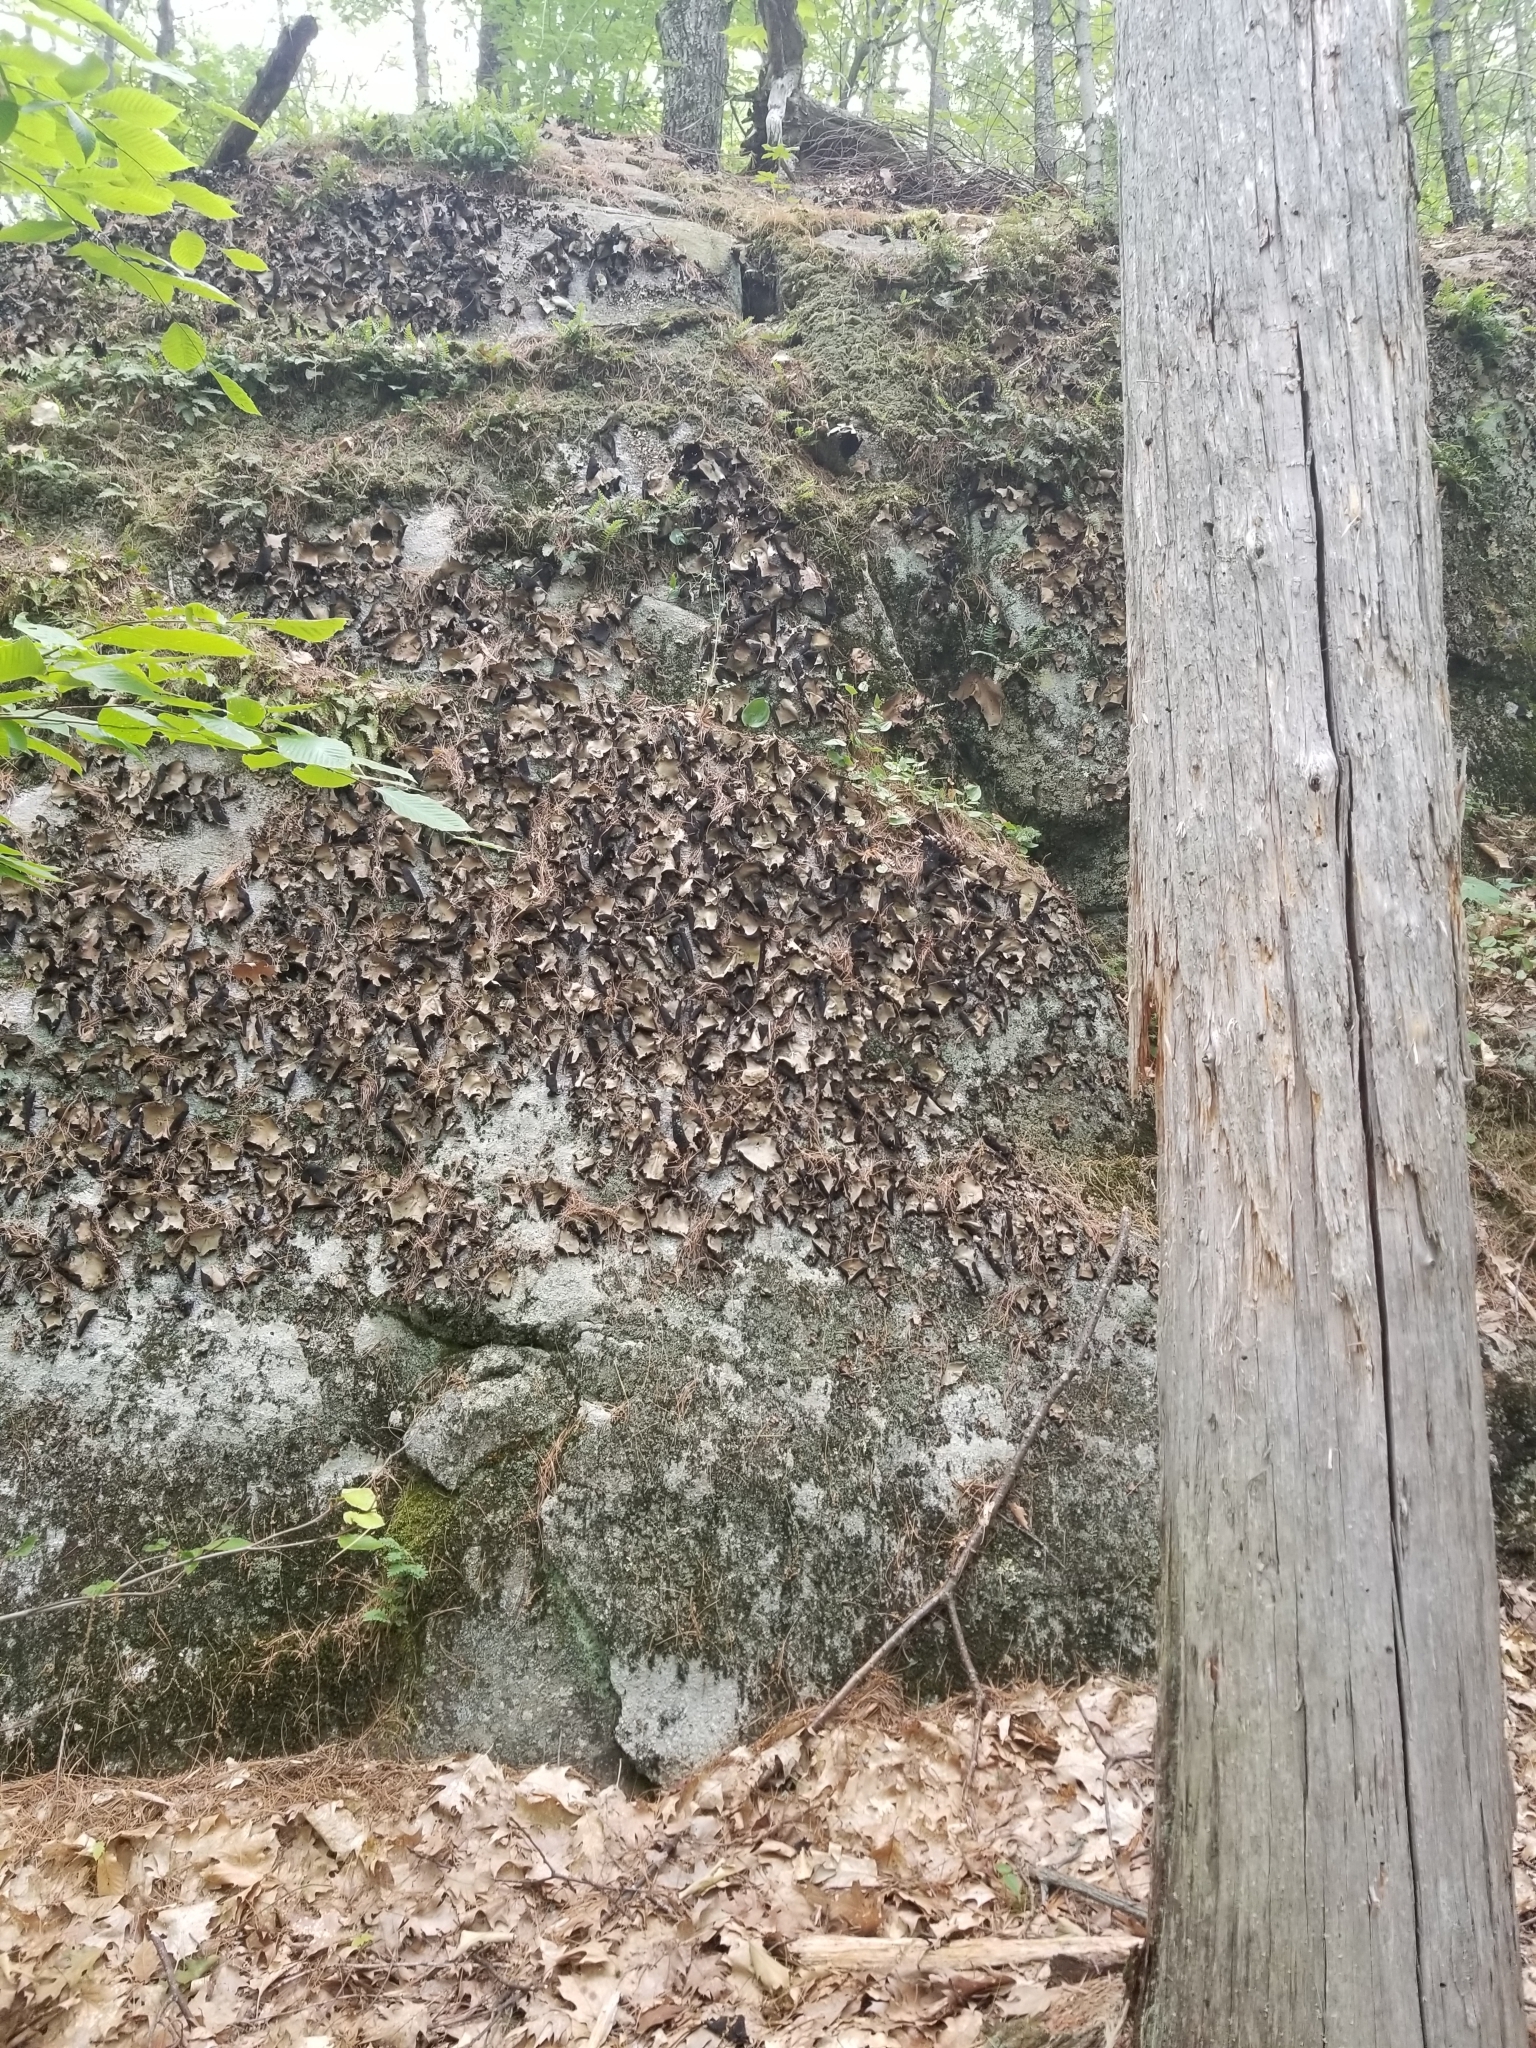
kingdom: Fungi
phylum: Ascomycota
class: Lecanoromycetes
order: Umbilicariales
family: Umbilicariaceae
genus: Umbilicaria
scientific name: Umbilicaria mammulata
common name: Smooth rock tripe
